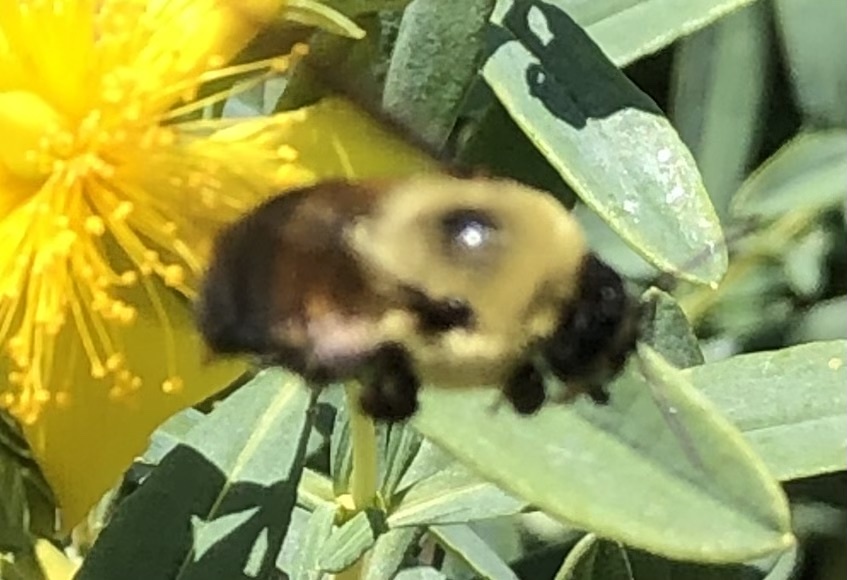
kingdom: Animalia
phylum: Arthropoda
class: Insecta
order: Hymenoptera
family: Apidae
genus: Bombus
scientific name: Bombus griseocollis
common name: Brown-belted bumble bee
